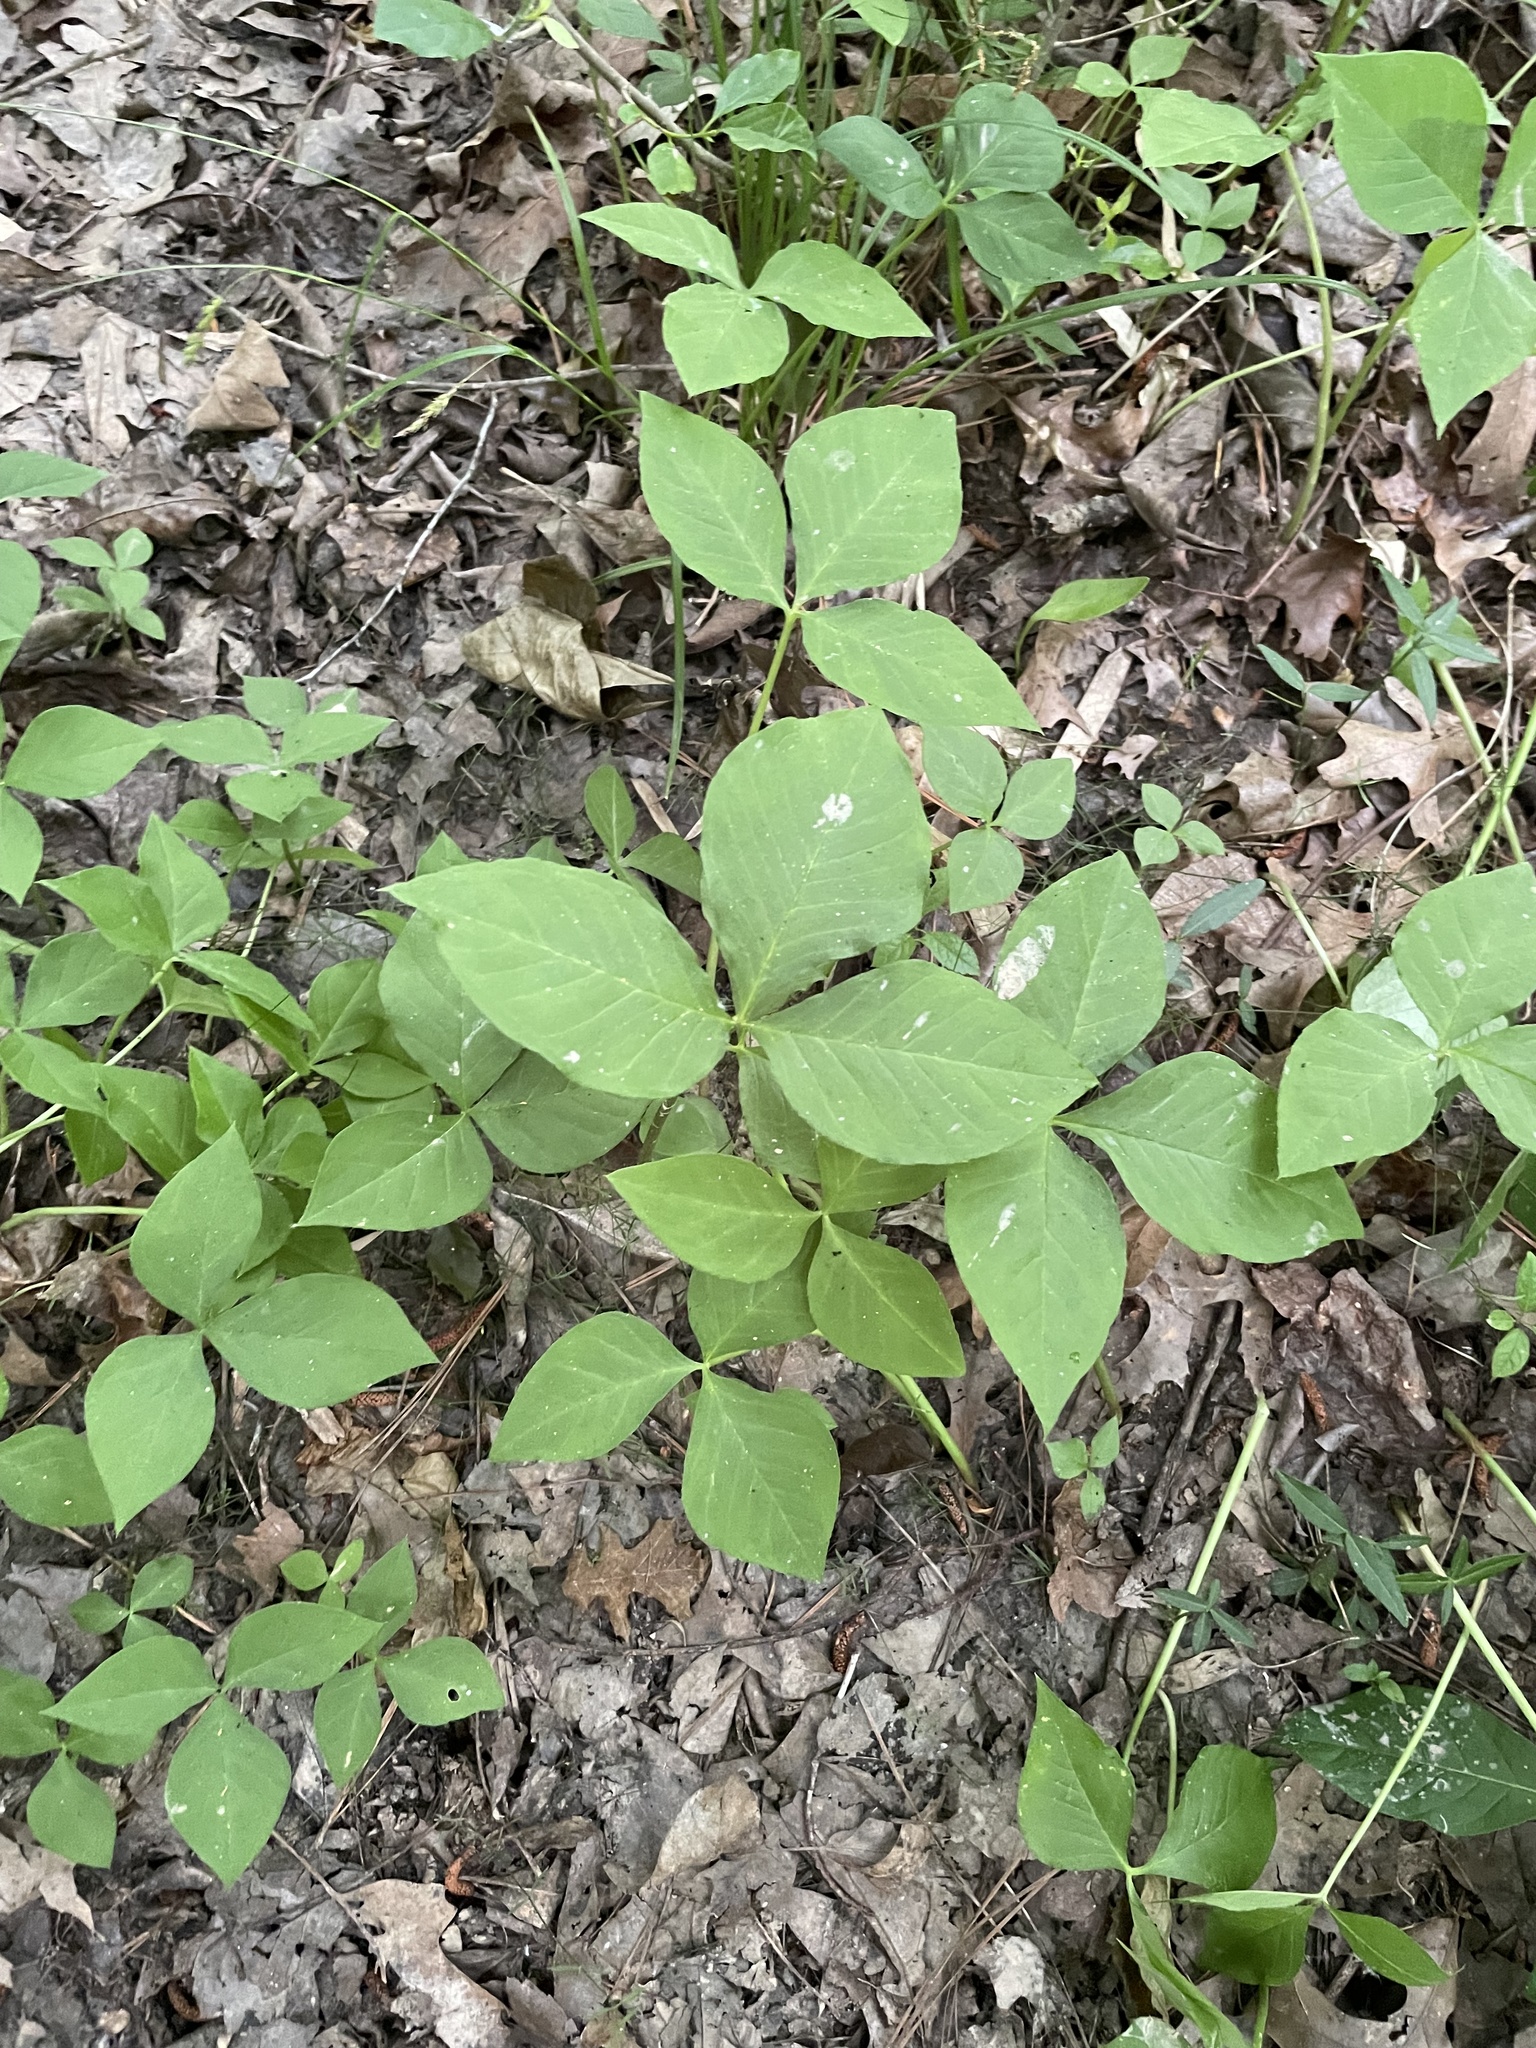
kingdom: Plantae
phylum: Tracheophyta
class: Liliopsida
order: Alismatales
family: Araceae
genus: Arisaema
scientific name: Arisaema triphyllum
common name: Jack-in-the-pulpit
